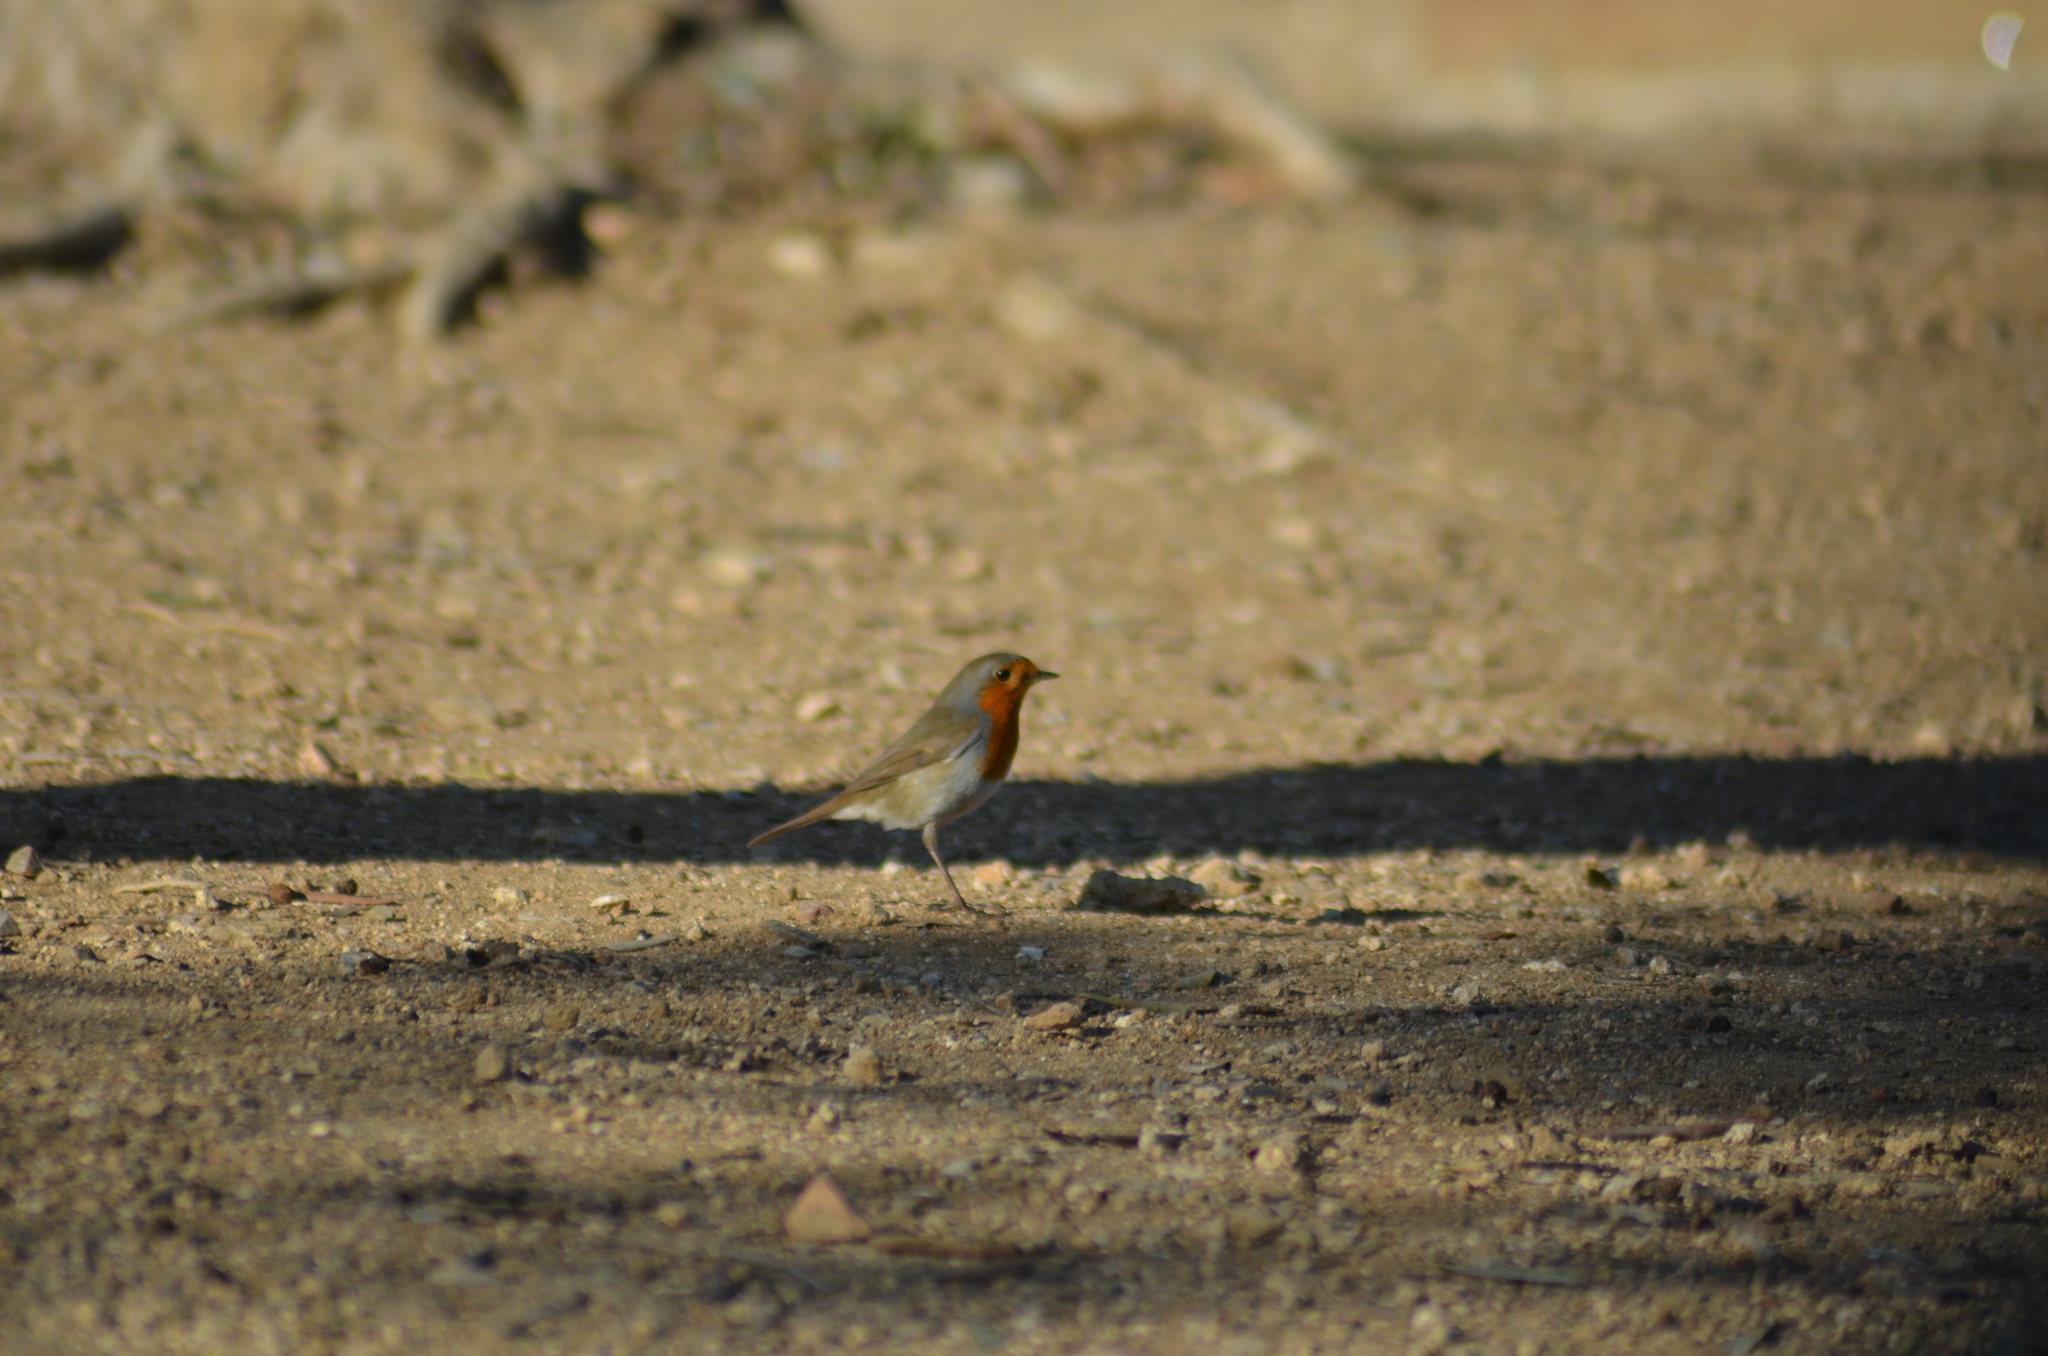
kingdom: Animalia
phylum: Chordata
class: Aves
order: Passeriformes
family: Muscicapidae
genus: Erithacus
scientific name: Erithacus rubecula
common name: European robin
